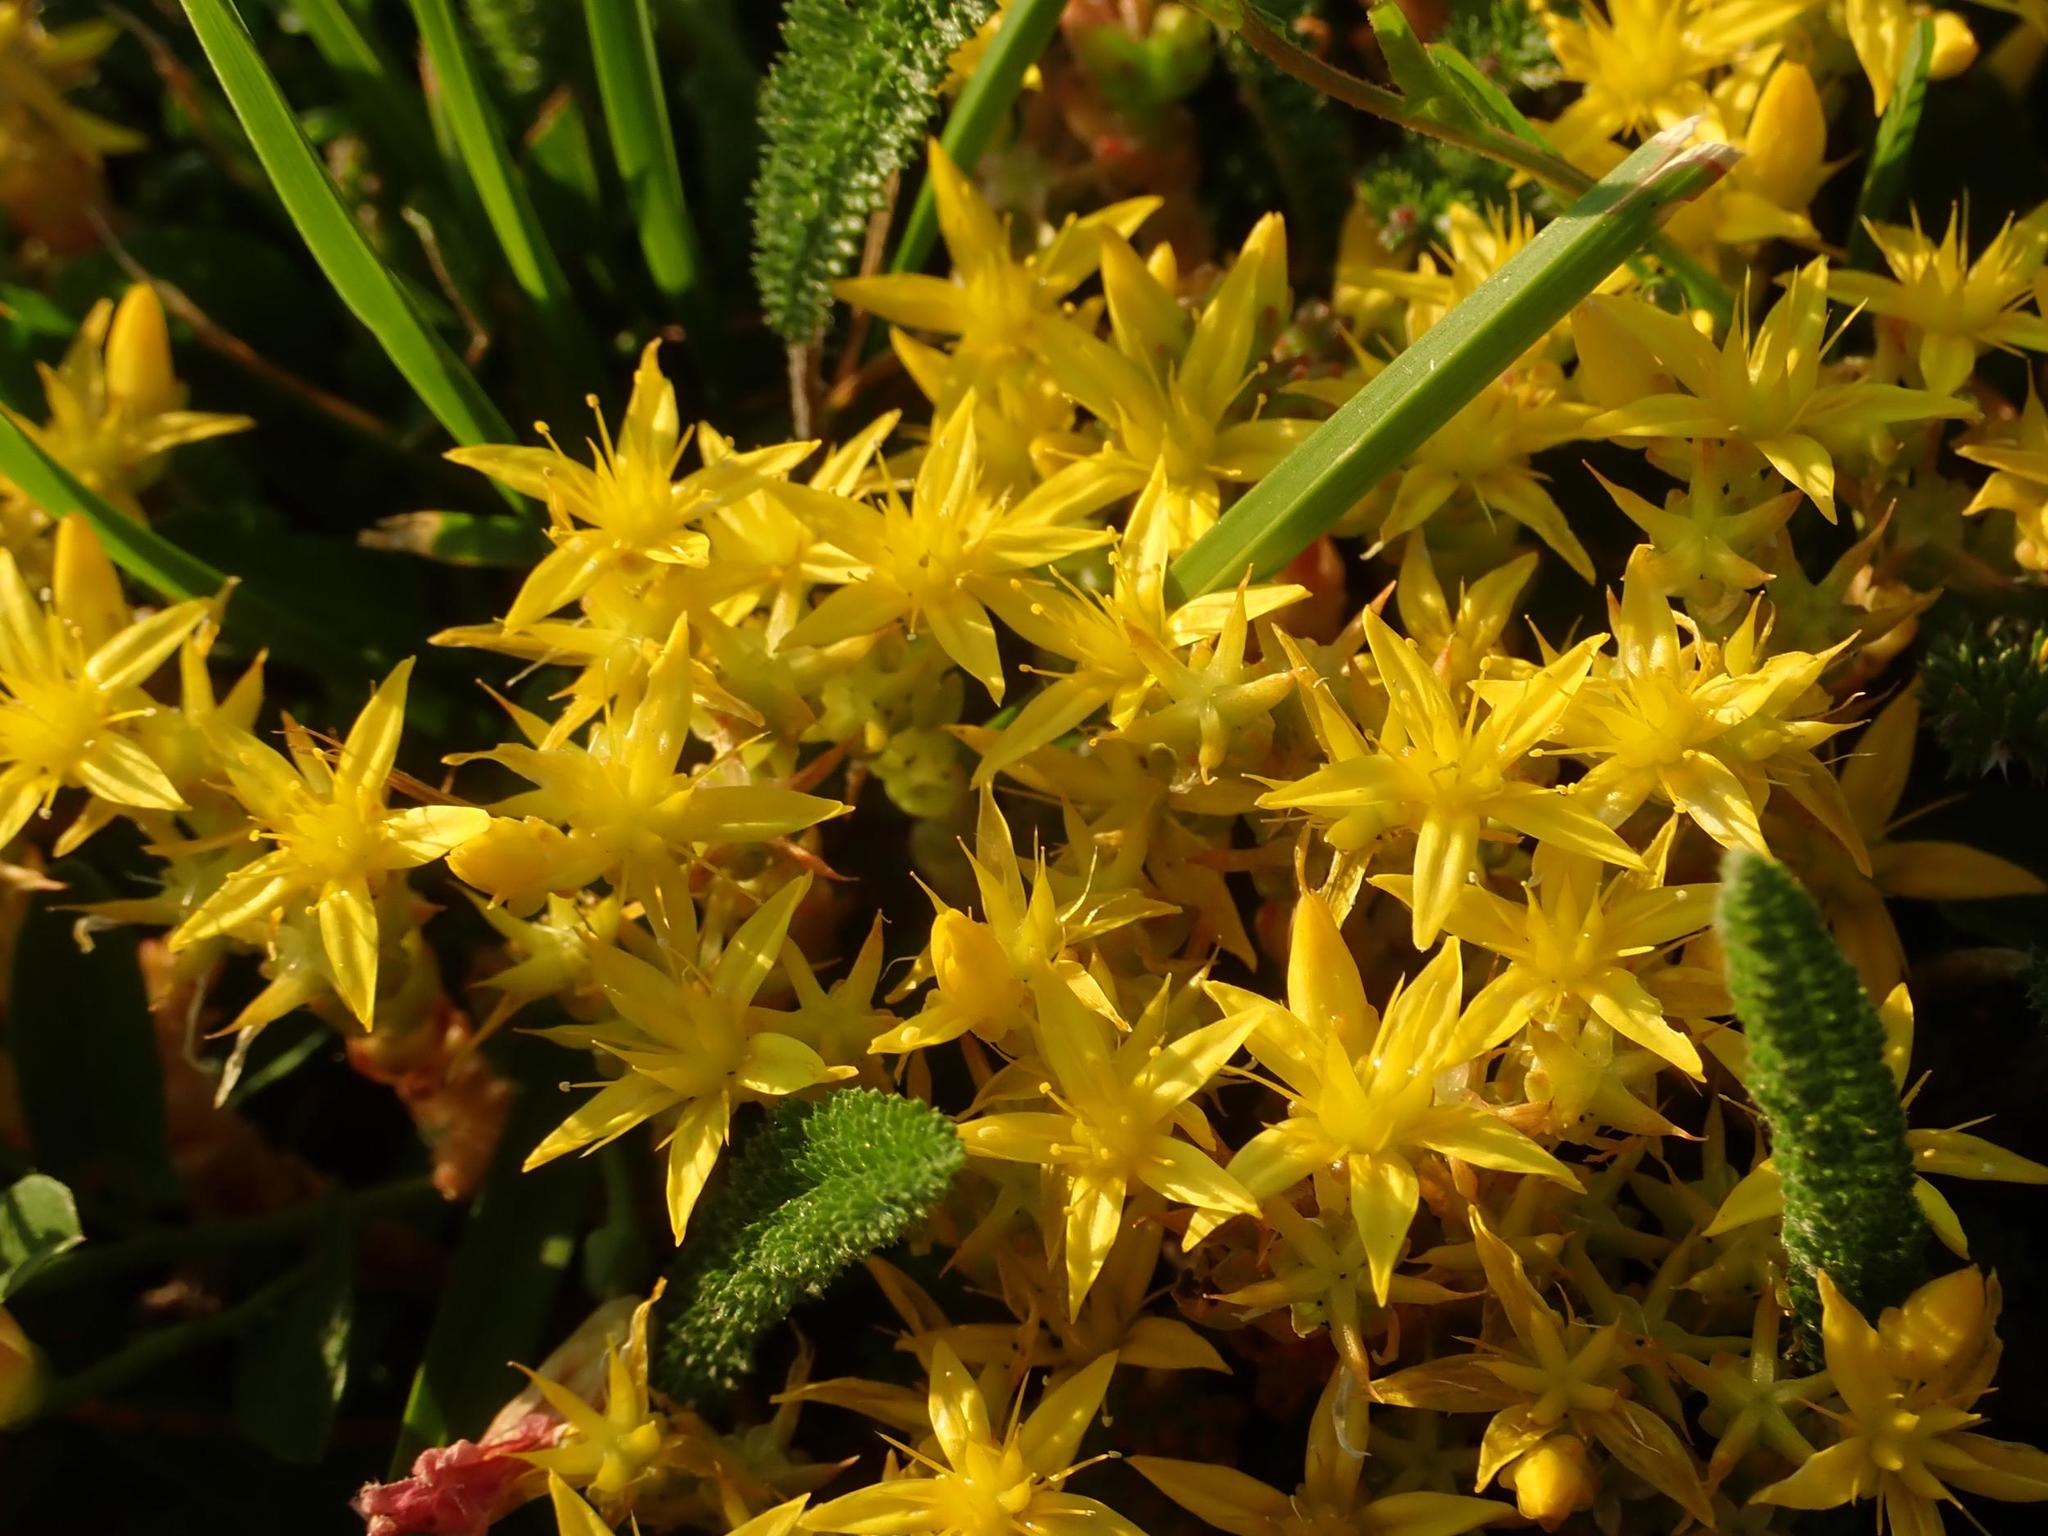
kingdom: Plantae
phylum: Tracheophyta
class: Magnoliopsida
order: Saxifragales
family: Crassulaceae
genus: Sedum
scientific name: Sedum acre
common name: Biting stonecrop
